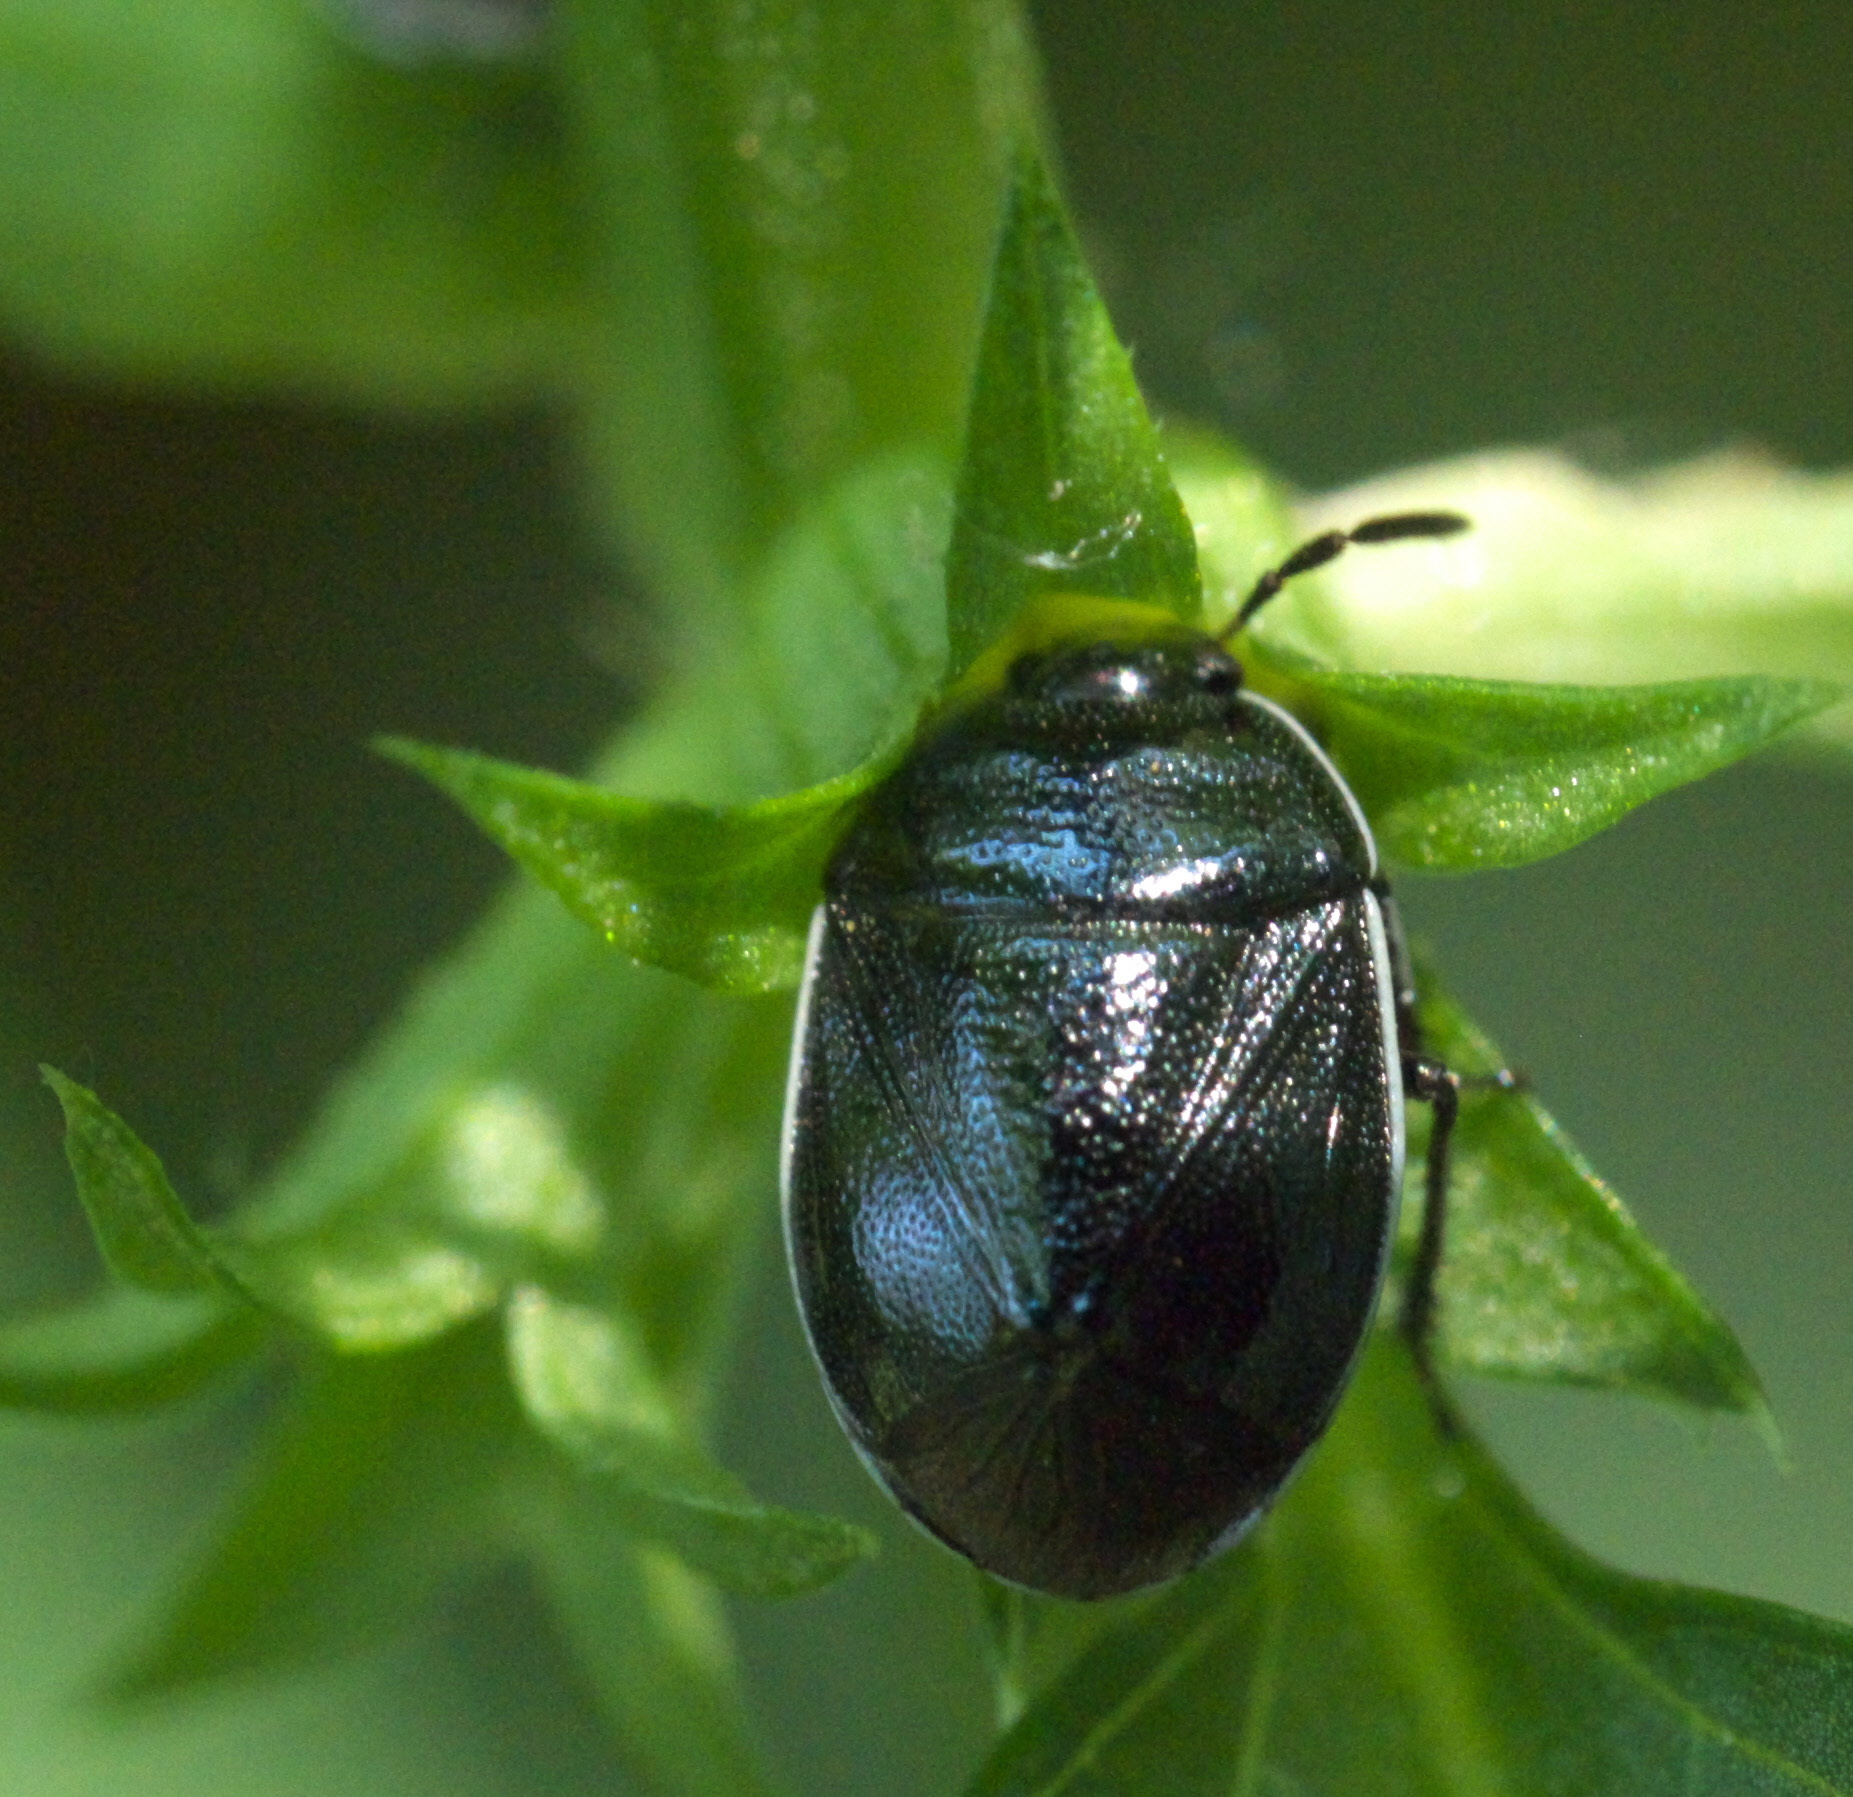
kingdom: Animalia
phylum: Arthropoda
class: Insecta
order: Hemiptera
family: Cydnidae
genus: Sehirus
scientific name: Sehirus cinctus
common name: White-margined burrower bug
